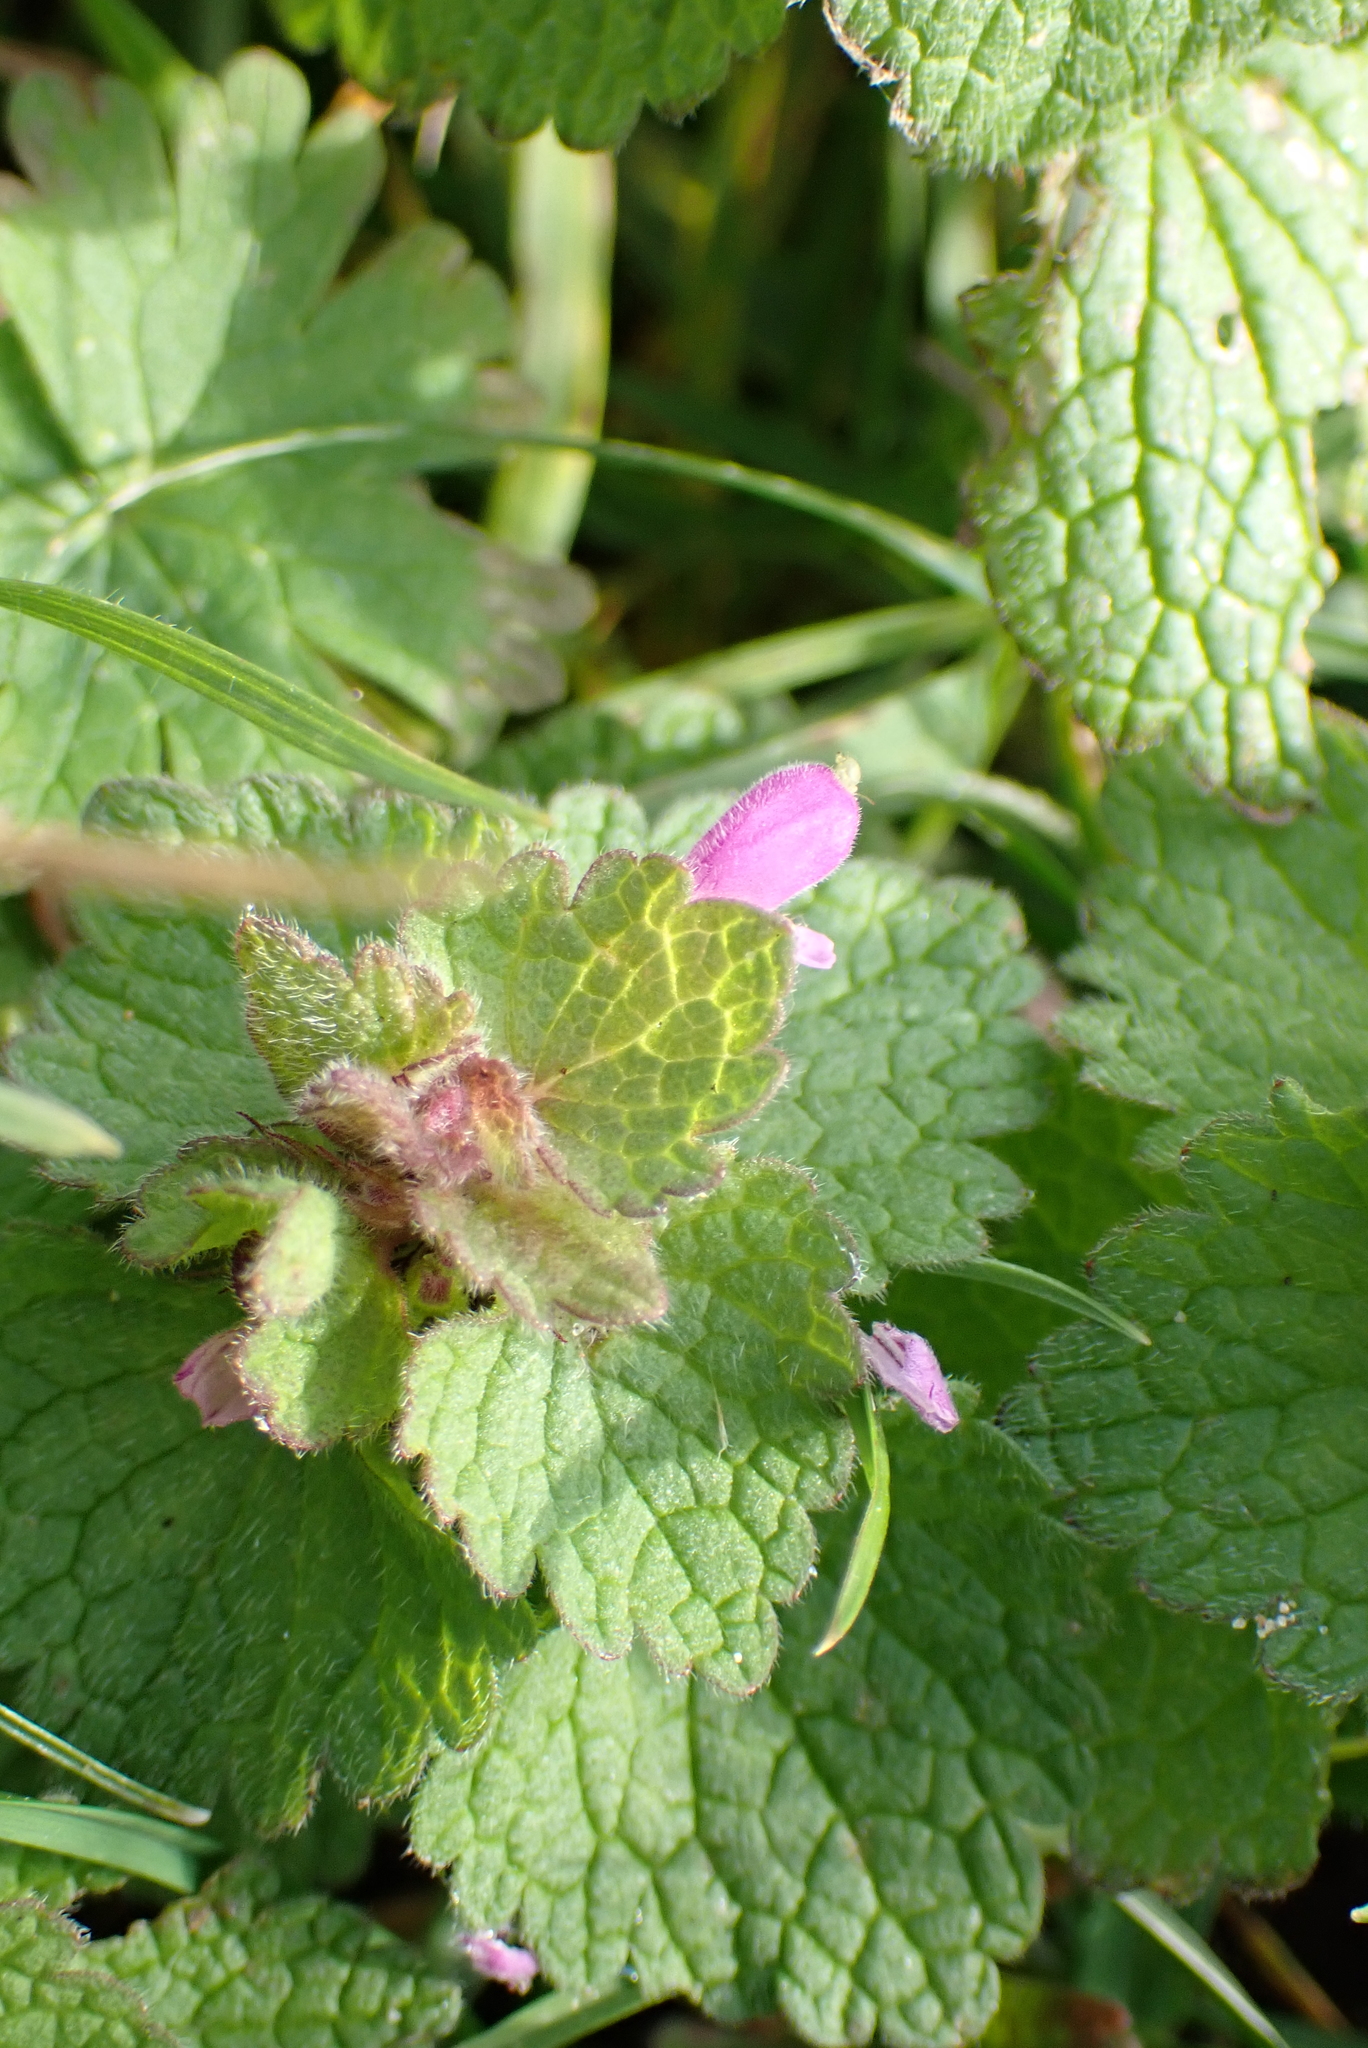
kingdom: Plantae
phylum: Tracheophyta
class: Magnoliopsida
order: Lamiales
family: Lamiaceae
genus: Lamium
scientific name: Lamium purpureum
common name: Red dead-nettle
